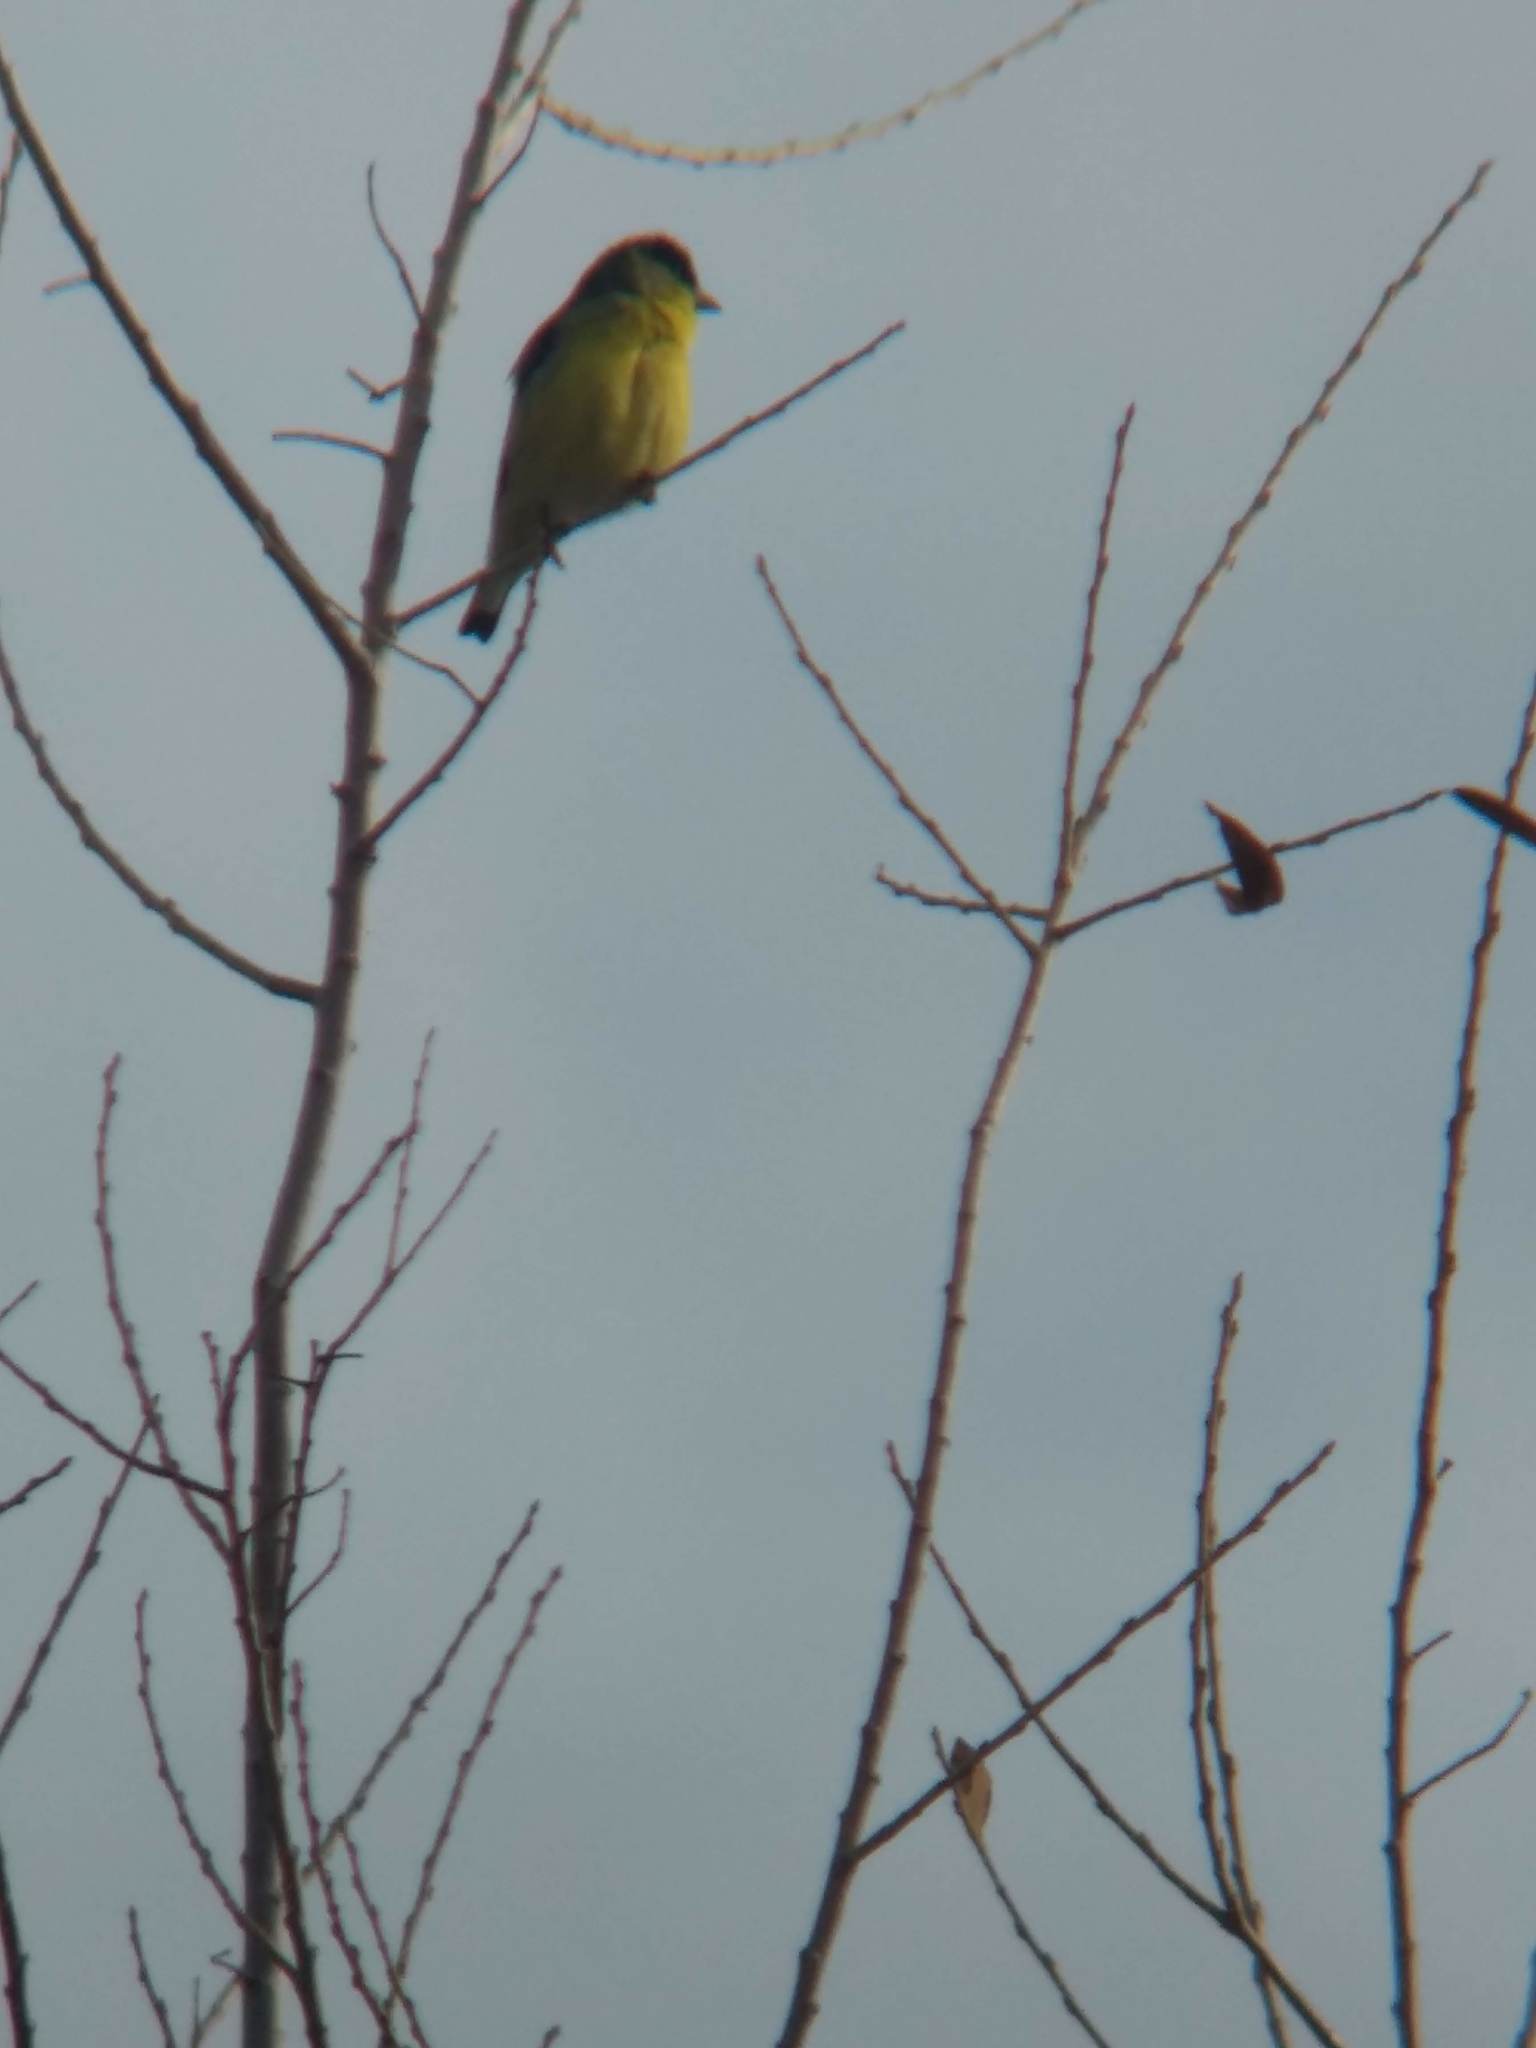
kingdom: Animalia
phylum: Chordata
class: Aves
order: Passeriformes
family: Fringillidae
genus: Spinus
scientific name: Spinus psaltria
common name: Lesser goldfinch
